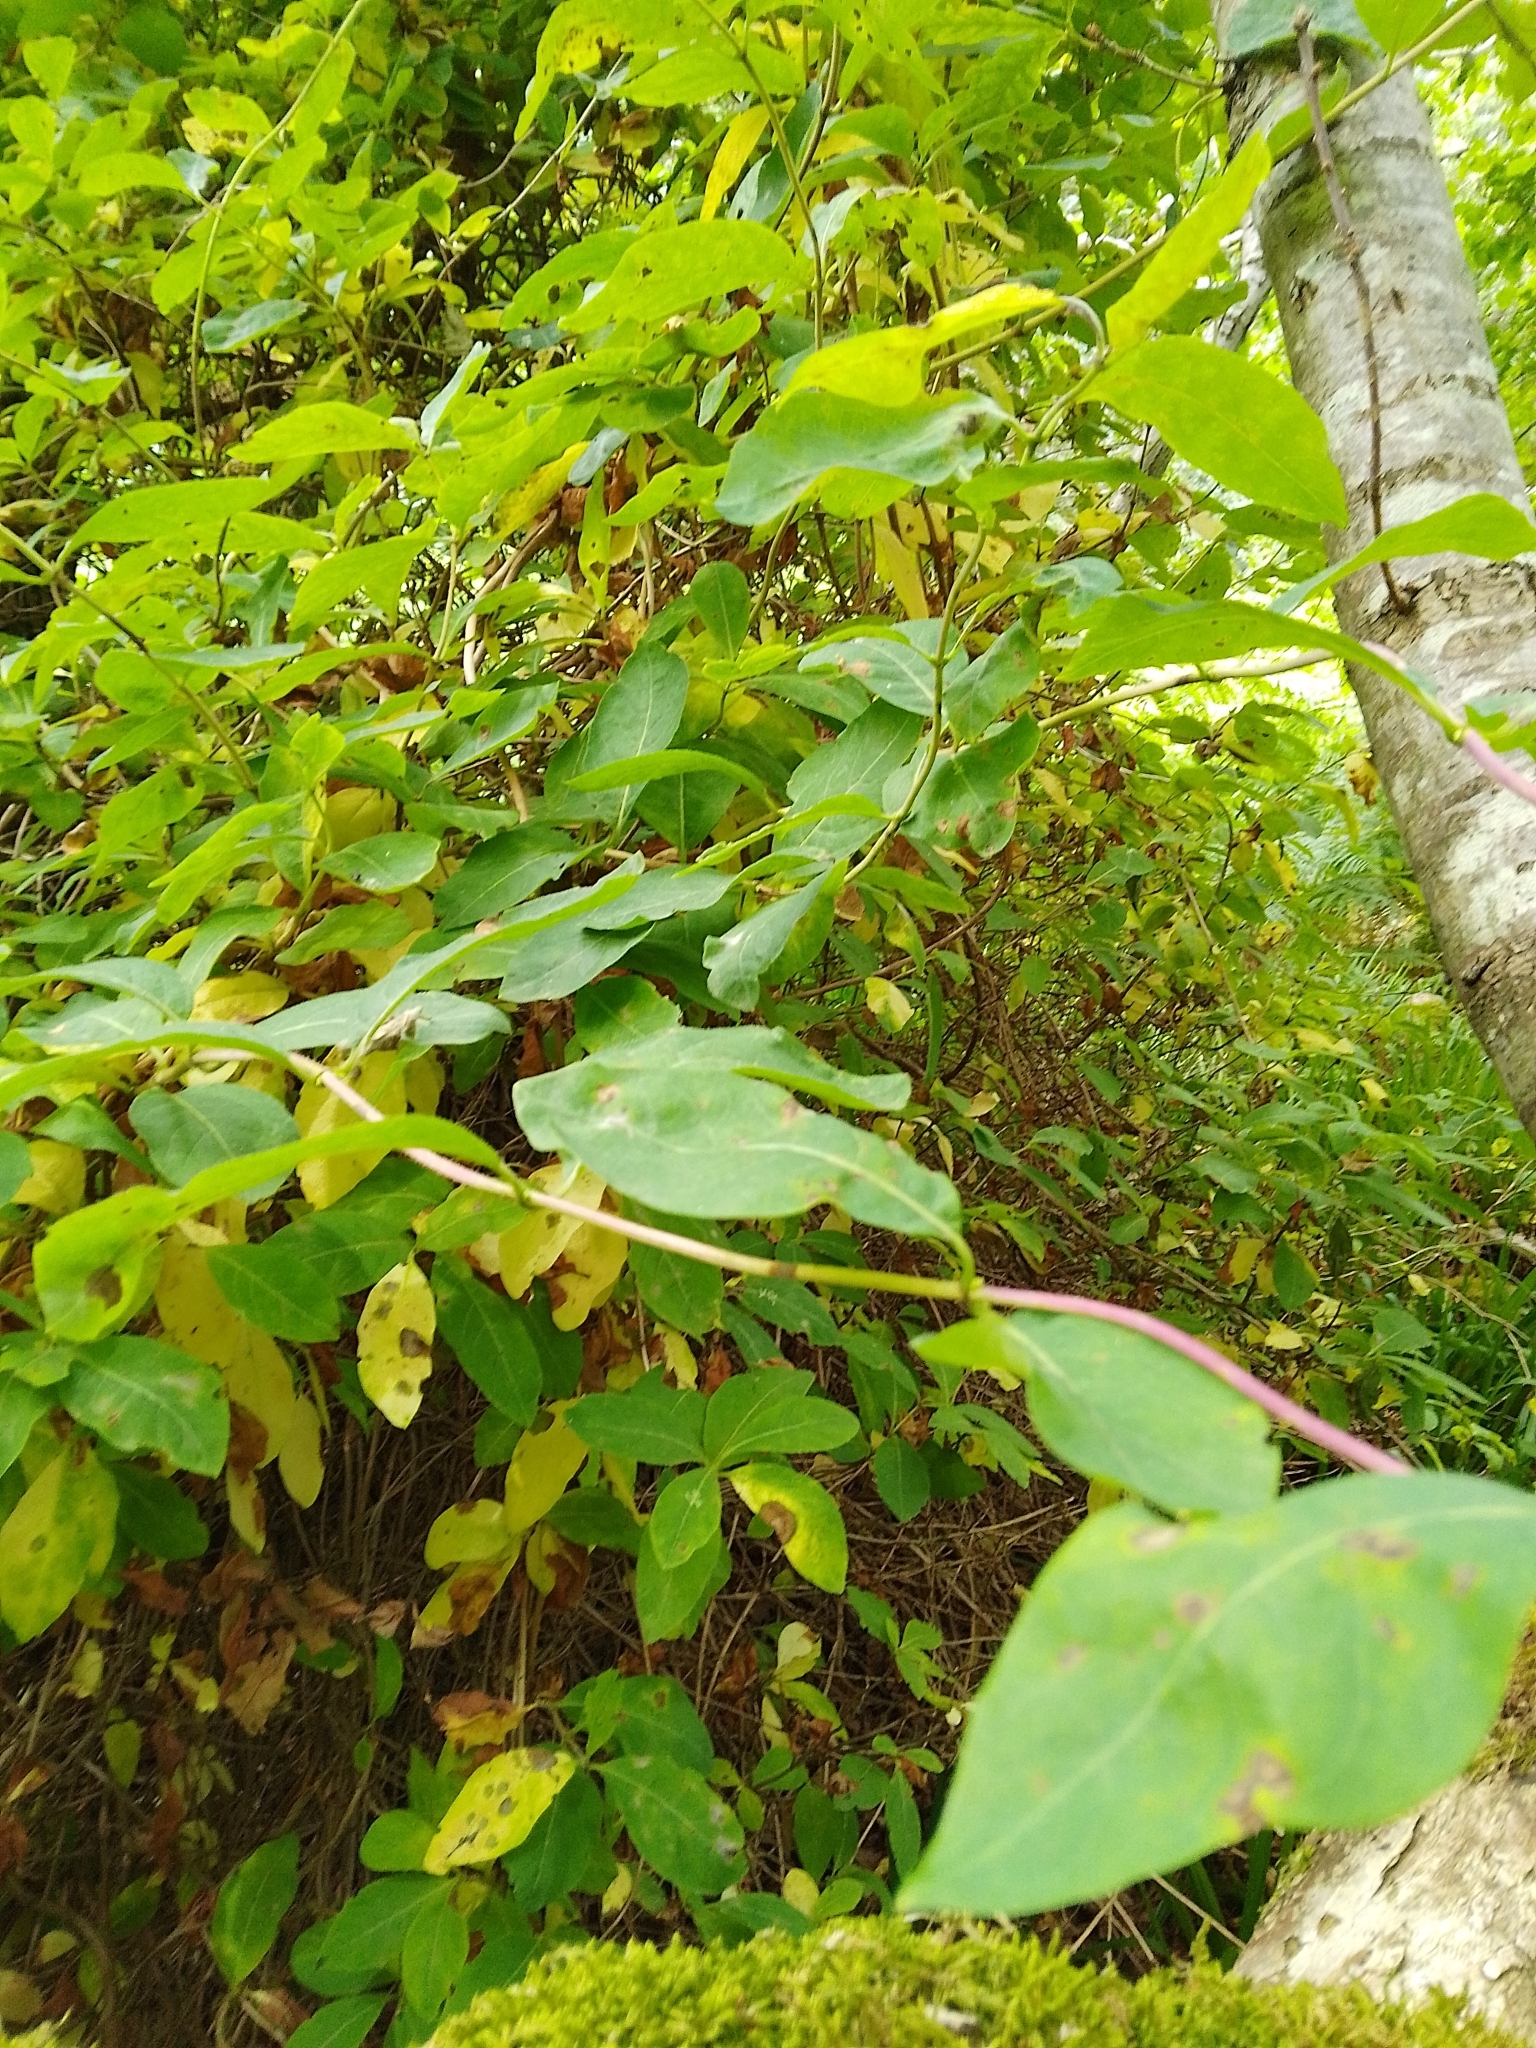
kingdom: Plantae
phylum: Tracheophyta
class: Magnoliopsida
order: Dipsacales
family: Caprifoliaceae
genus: Lonicera
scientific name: Lonicera periclymenum
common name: European honeysuckle
